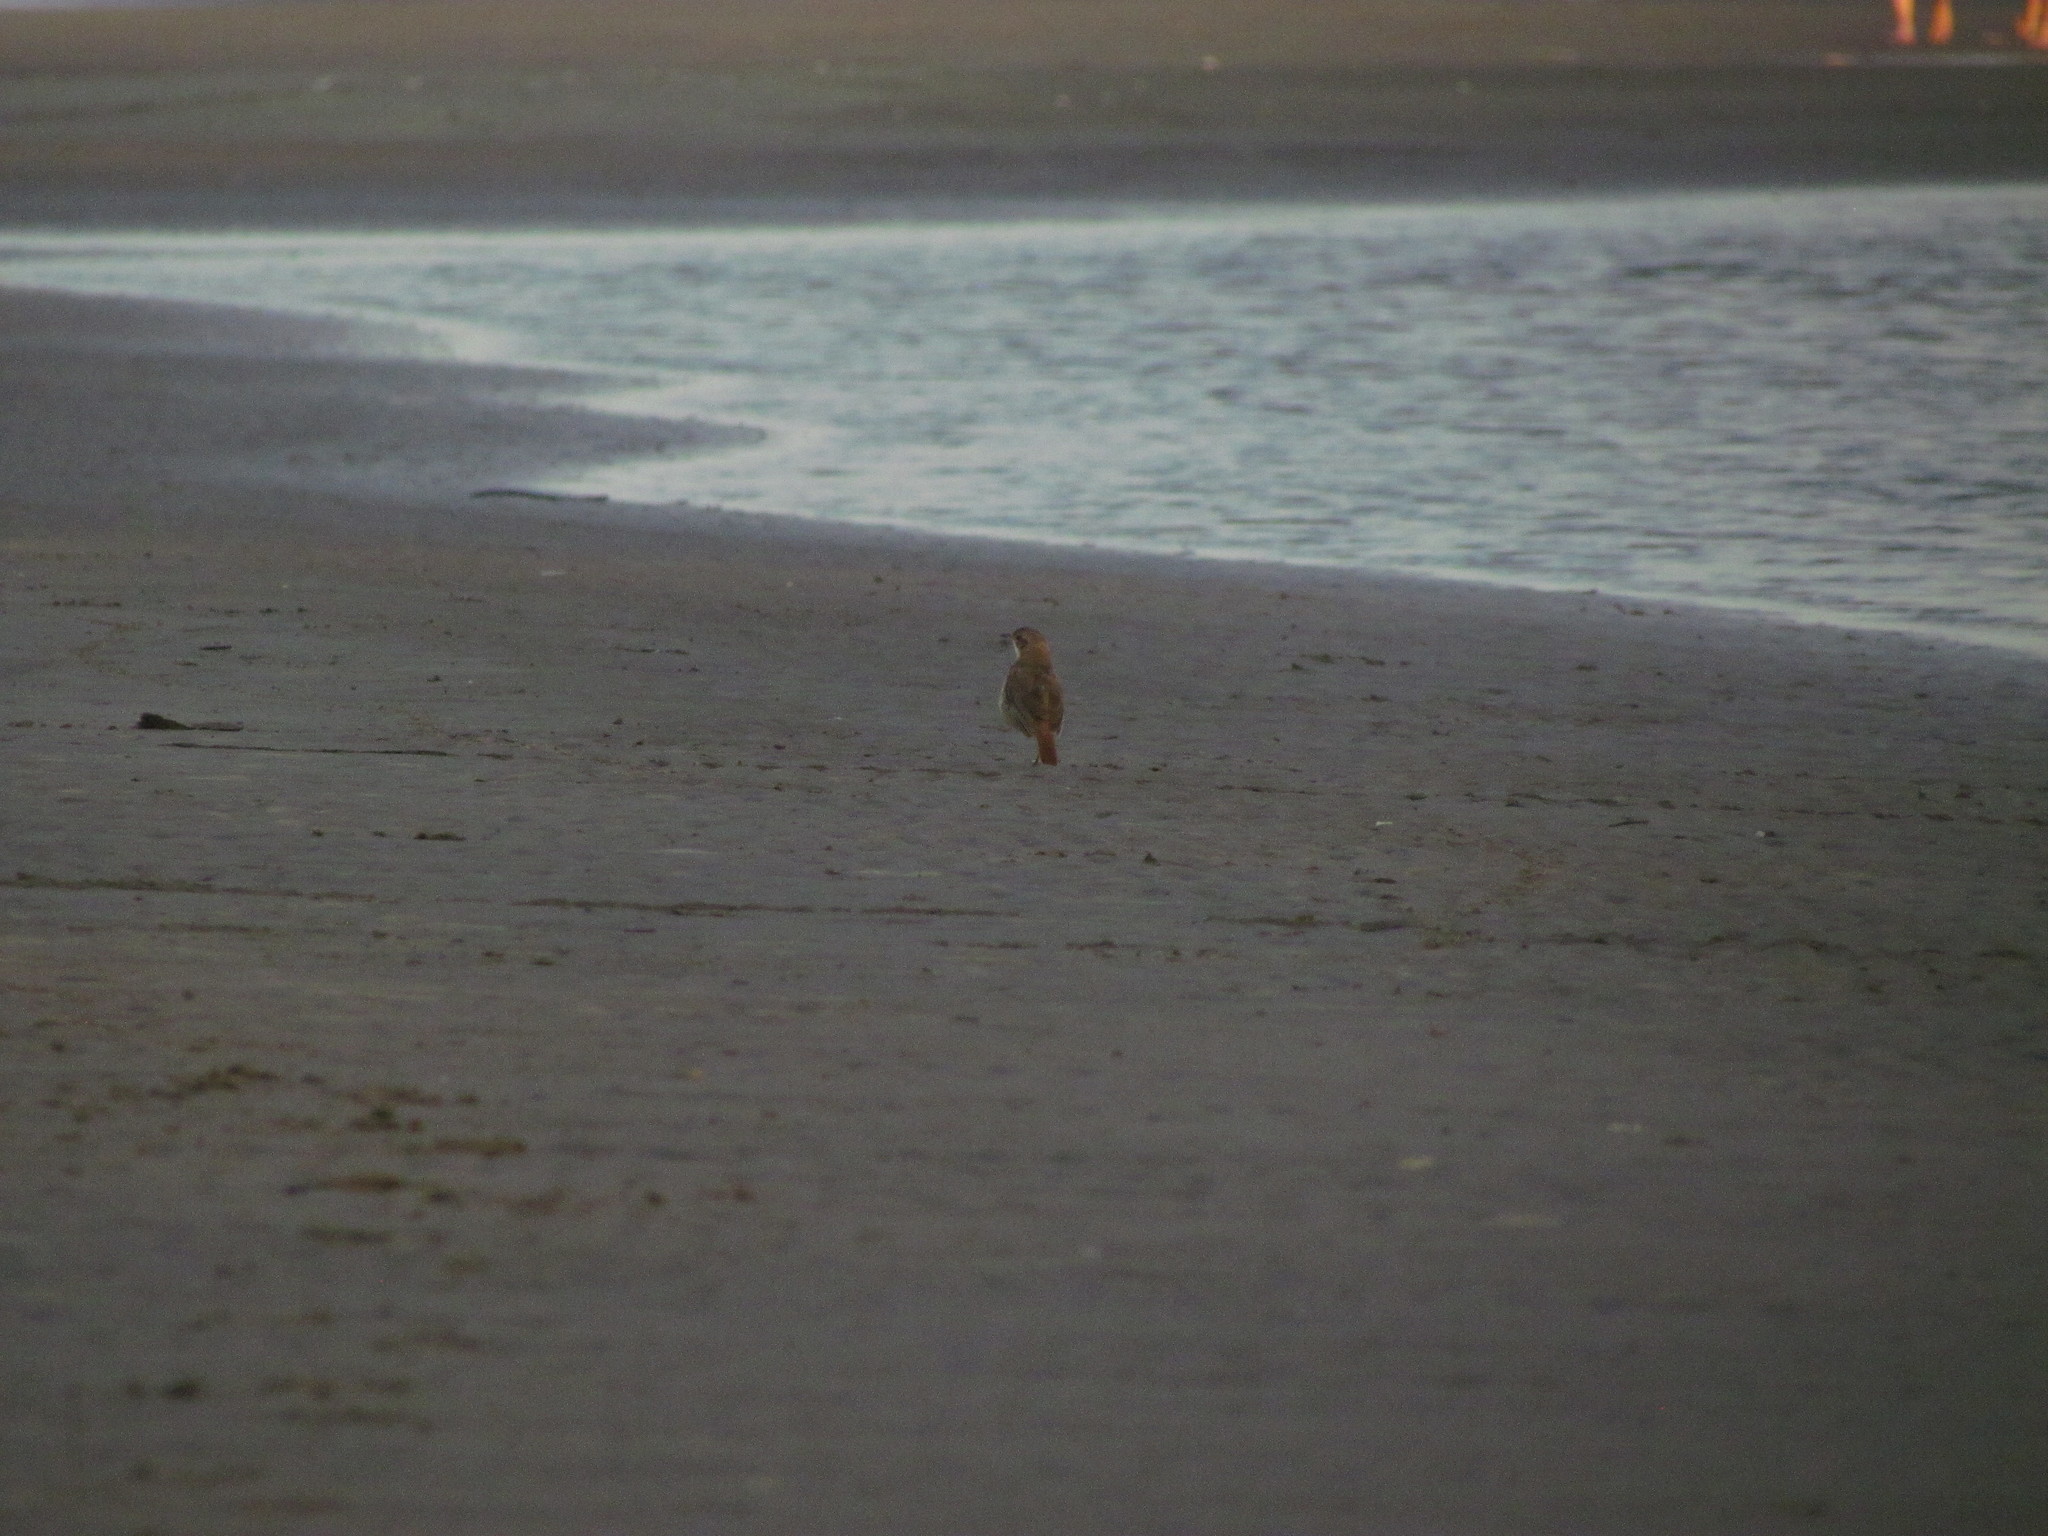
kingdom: Animalia
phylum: Chordata
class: Aves
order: Passeriformes
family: Furnariidae
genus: Furnarius
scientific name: Furnarius rufus
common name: Rufous hornero
